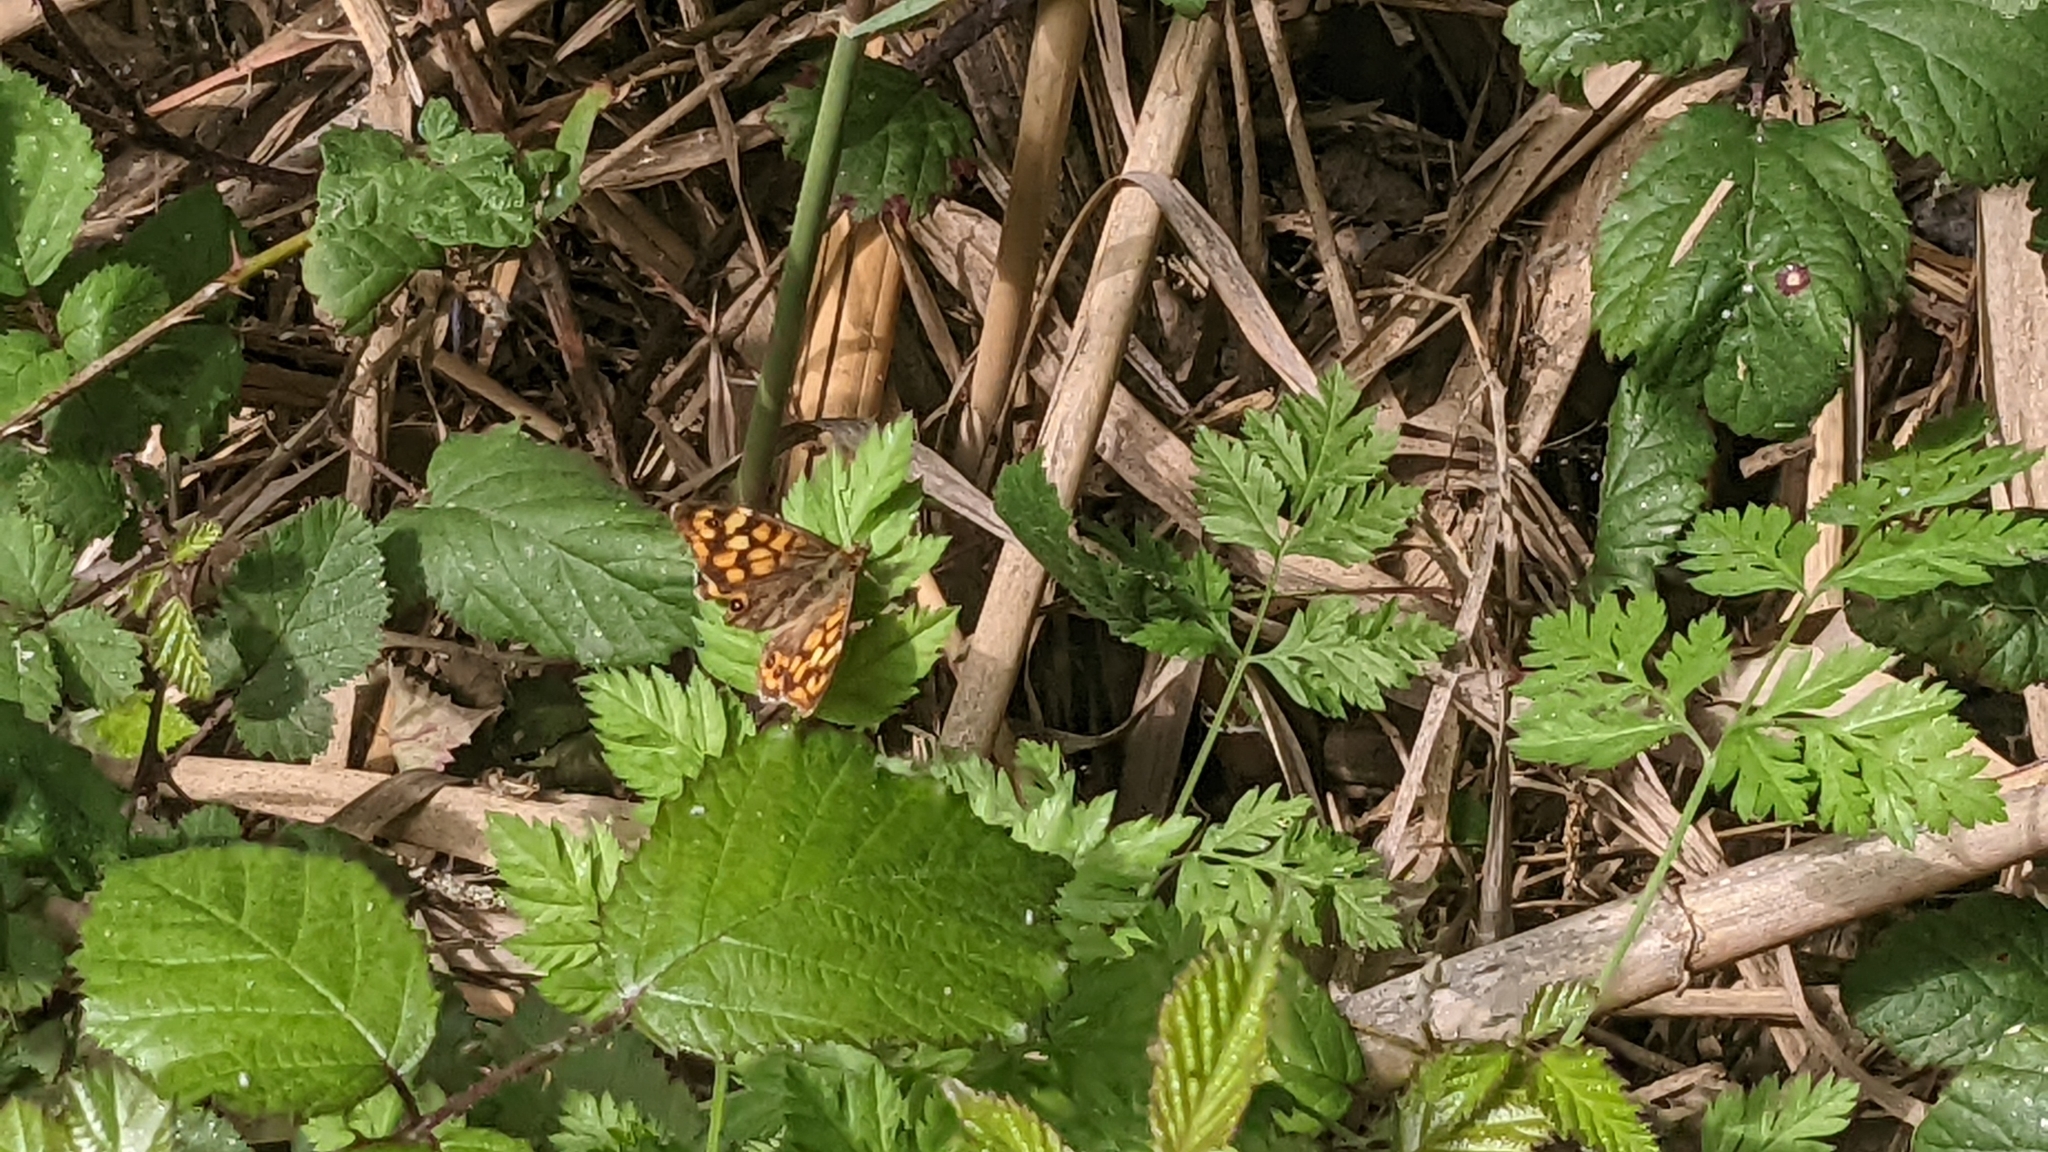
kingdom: Animalia
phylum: Arthropoda
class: Insecta
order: Lepidoptera
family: Nymphalidae
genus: Pararge
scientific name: Pararge aegeria
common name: Speckled wood
